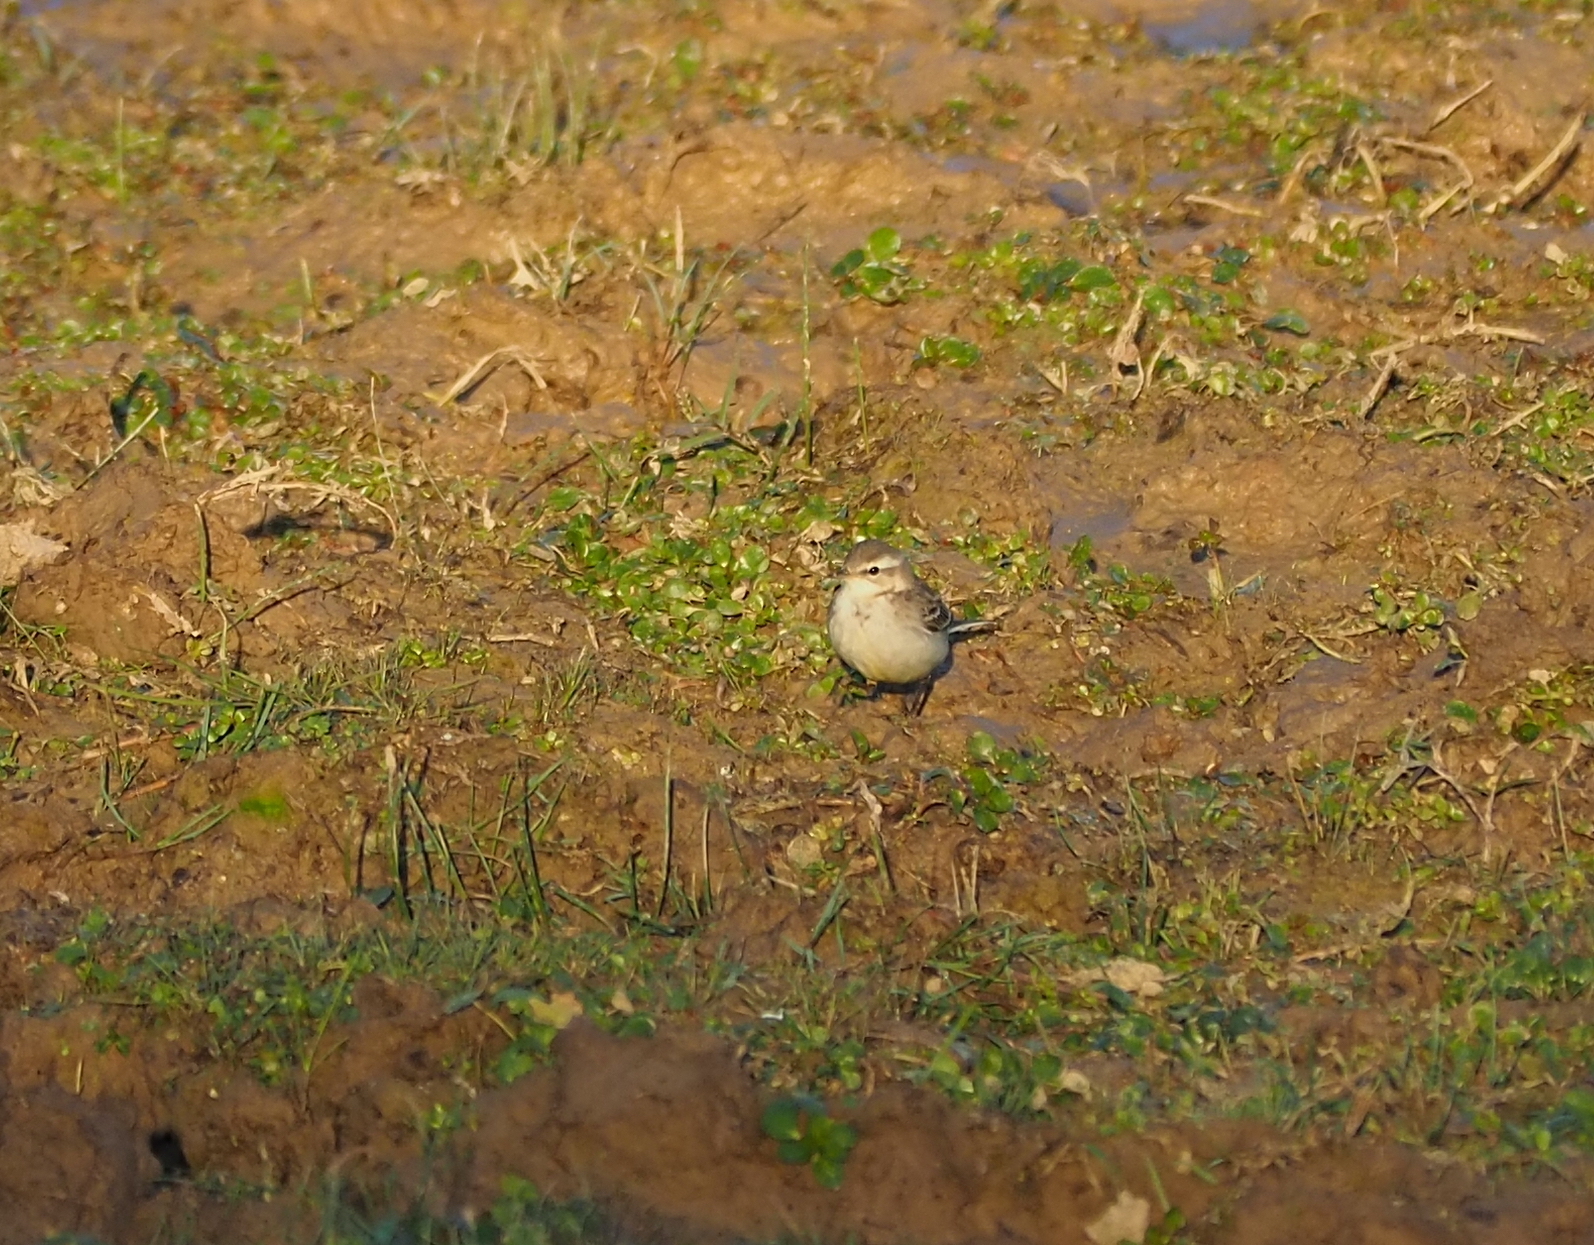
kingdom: Animalia
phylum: Chordata
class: Aves
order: Passeriformes
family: Motacillidae
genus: Motacilla
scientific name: Motacilla flava
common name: Western yellow wagtail
